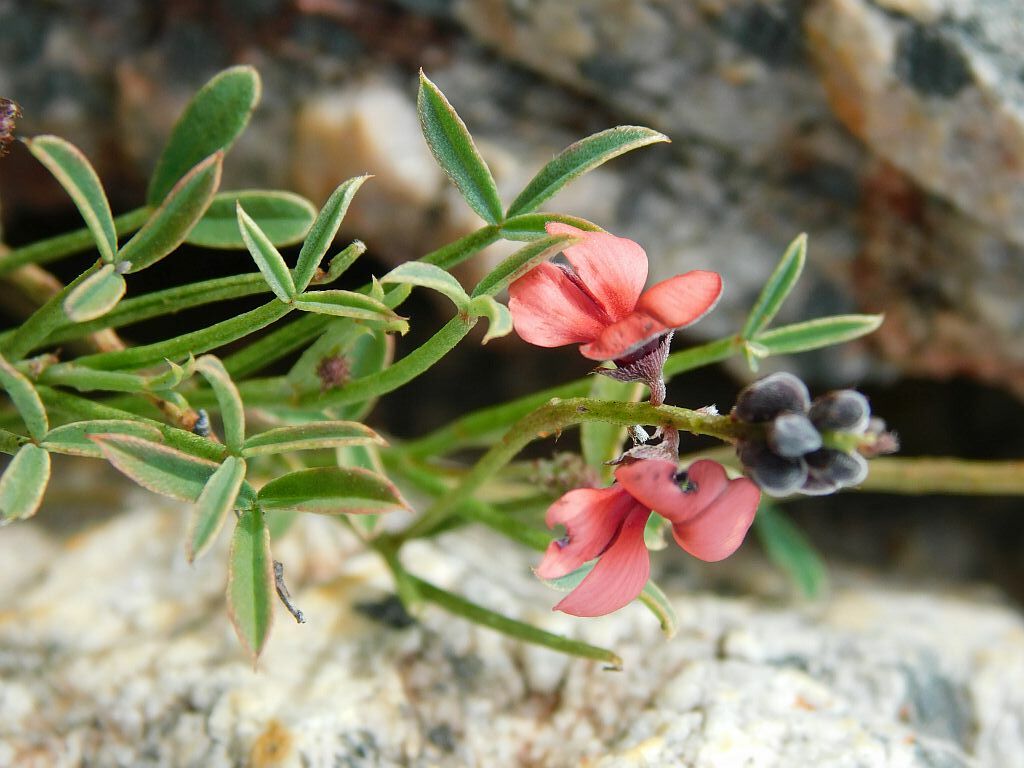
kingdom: Plantae
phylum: Tracheophyta
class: Magnoliopsida
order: Fabales
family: Fabaceae
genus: Indigofera
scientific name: Indigofera heterophylla
